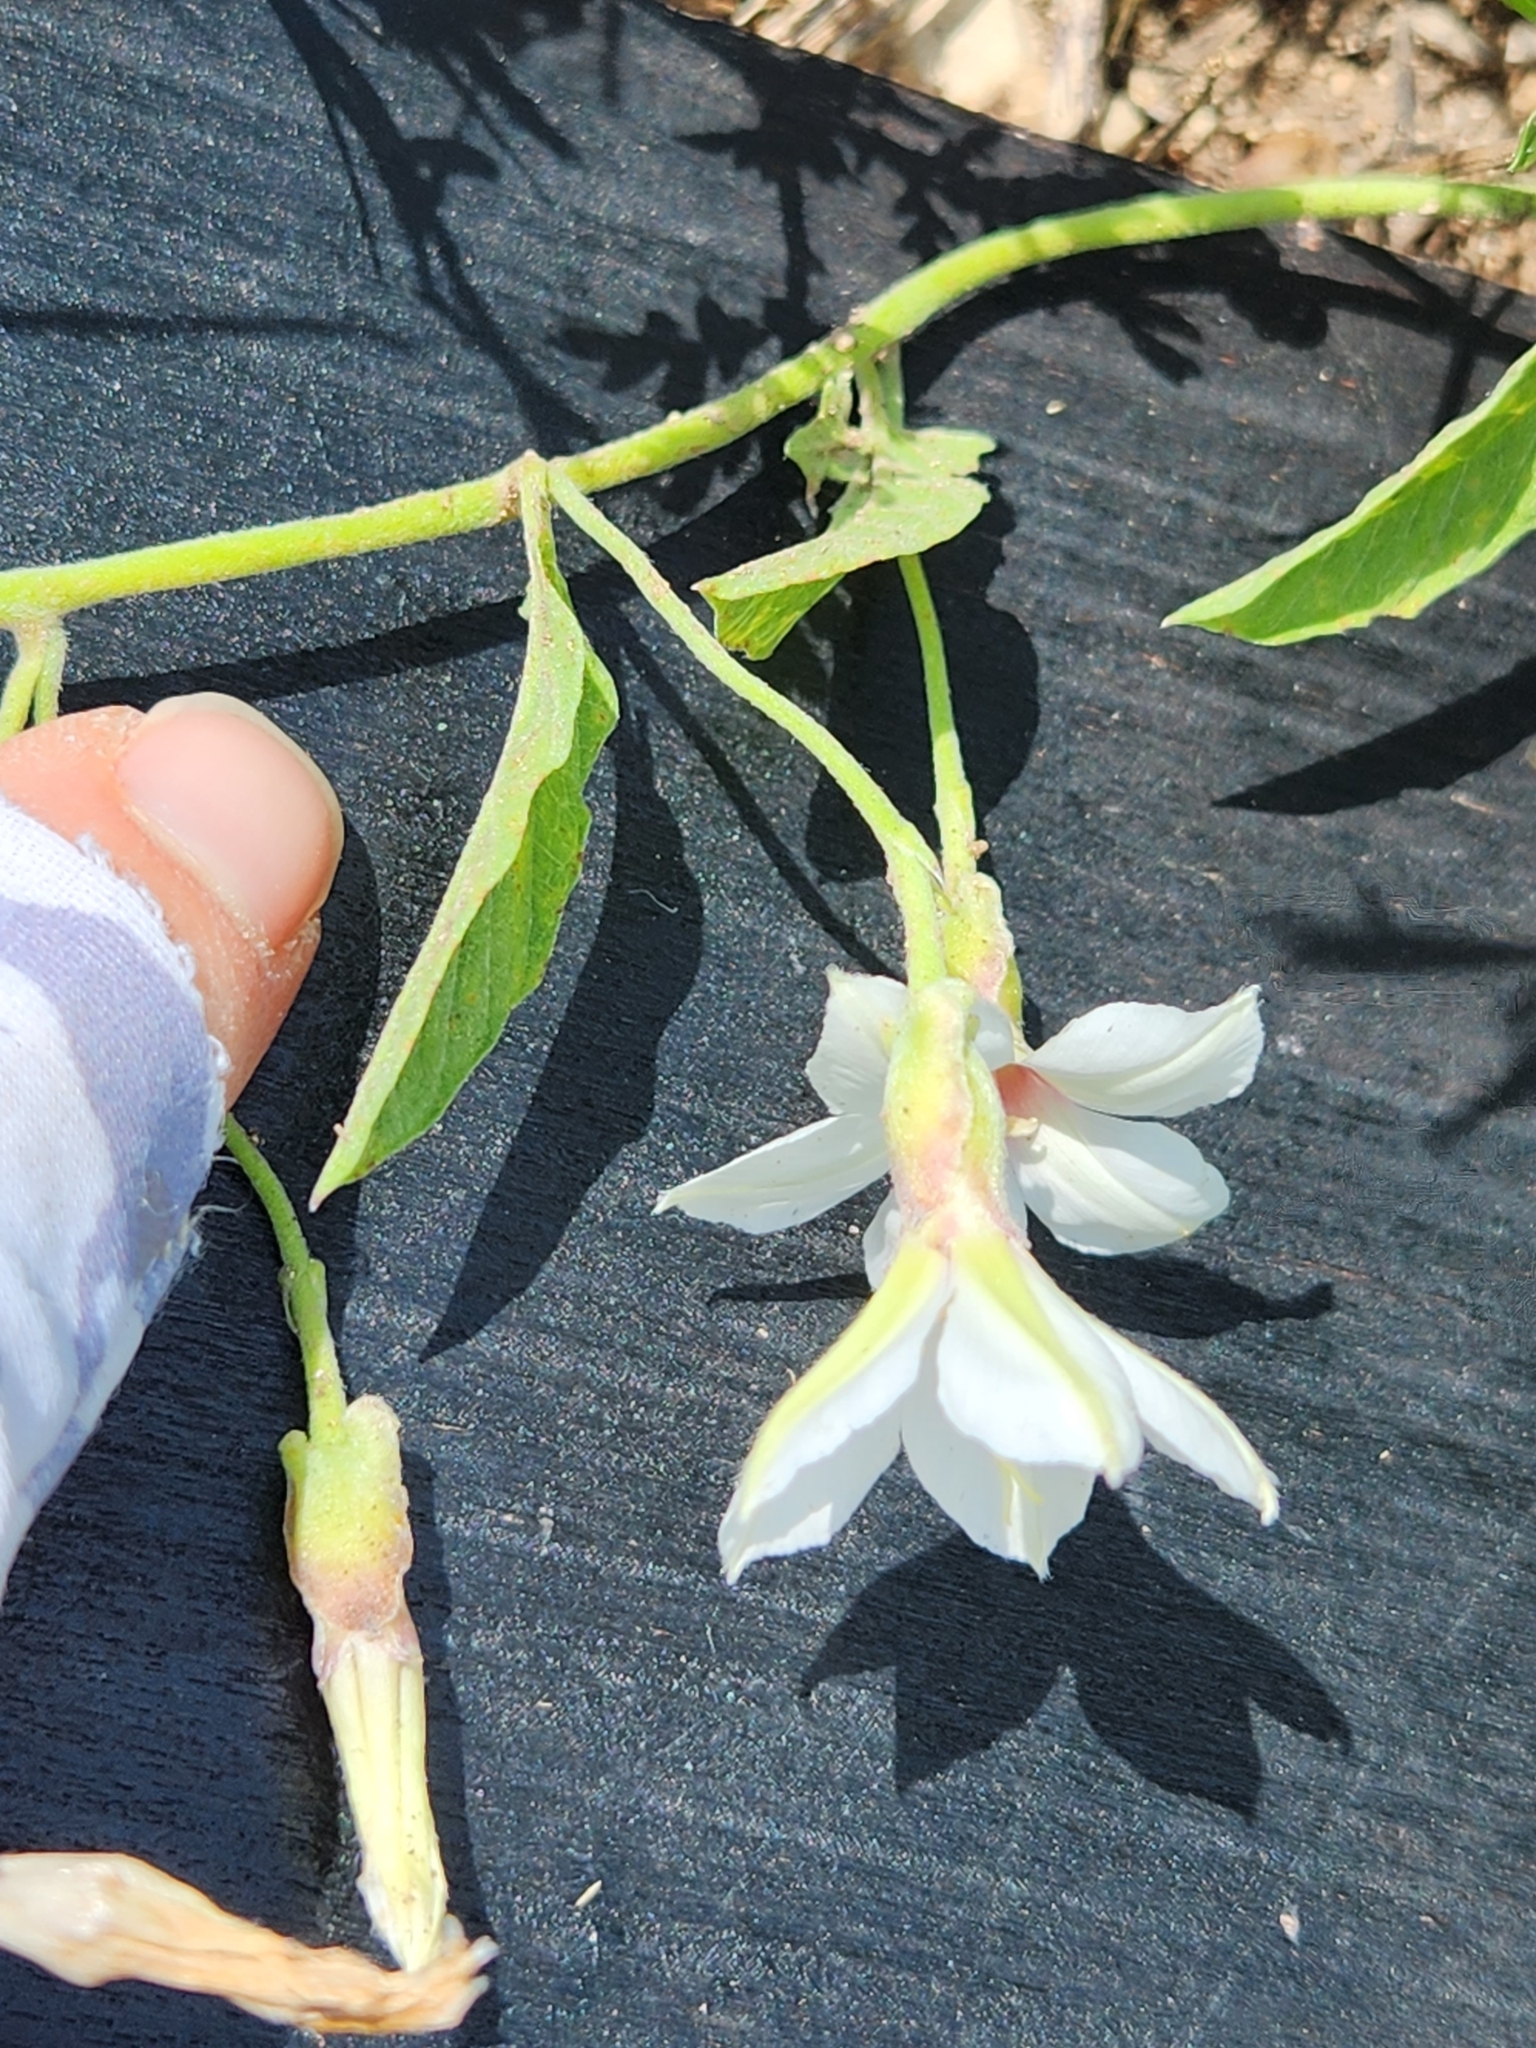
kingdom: Plantae
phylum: Tracheophyta
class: Magnoliopsida
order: Solanales
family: Convolvulaceae
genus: Convolvulus
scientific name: Convolvulus equitans
